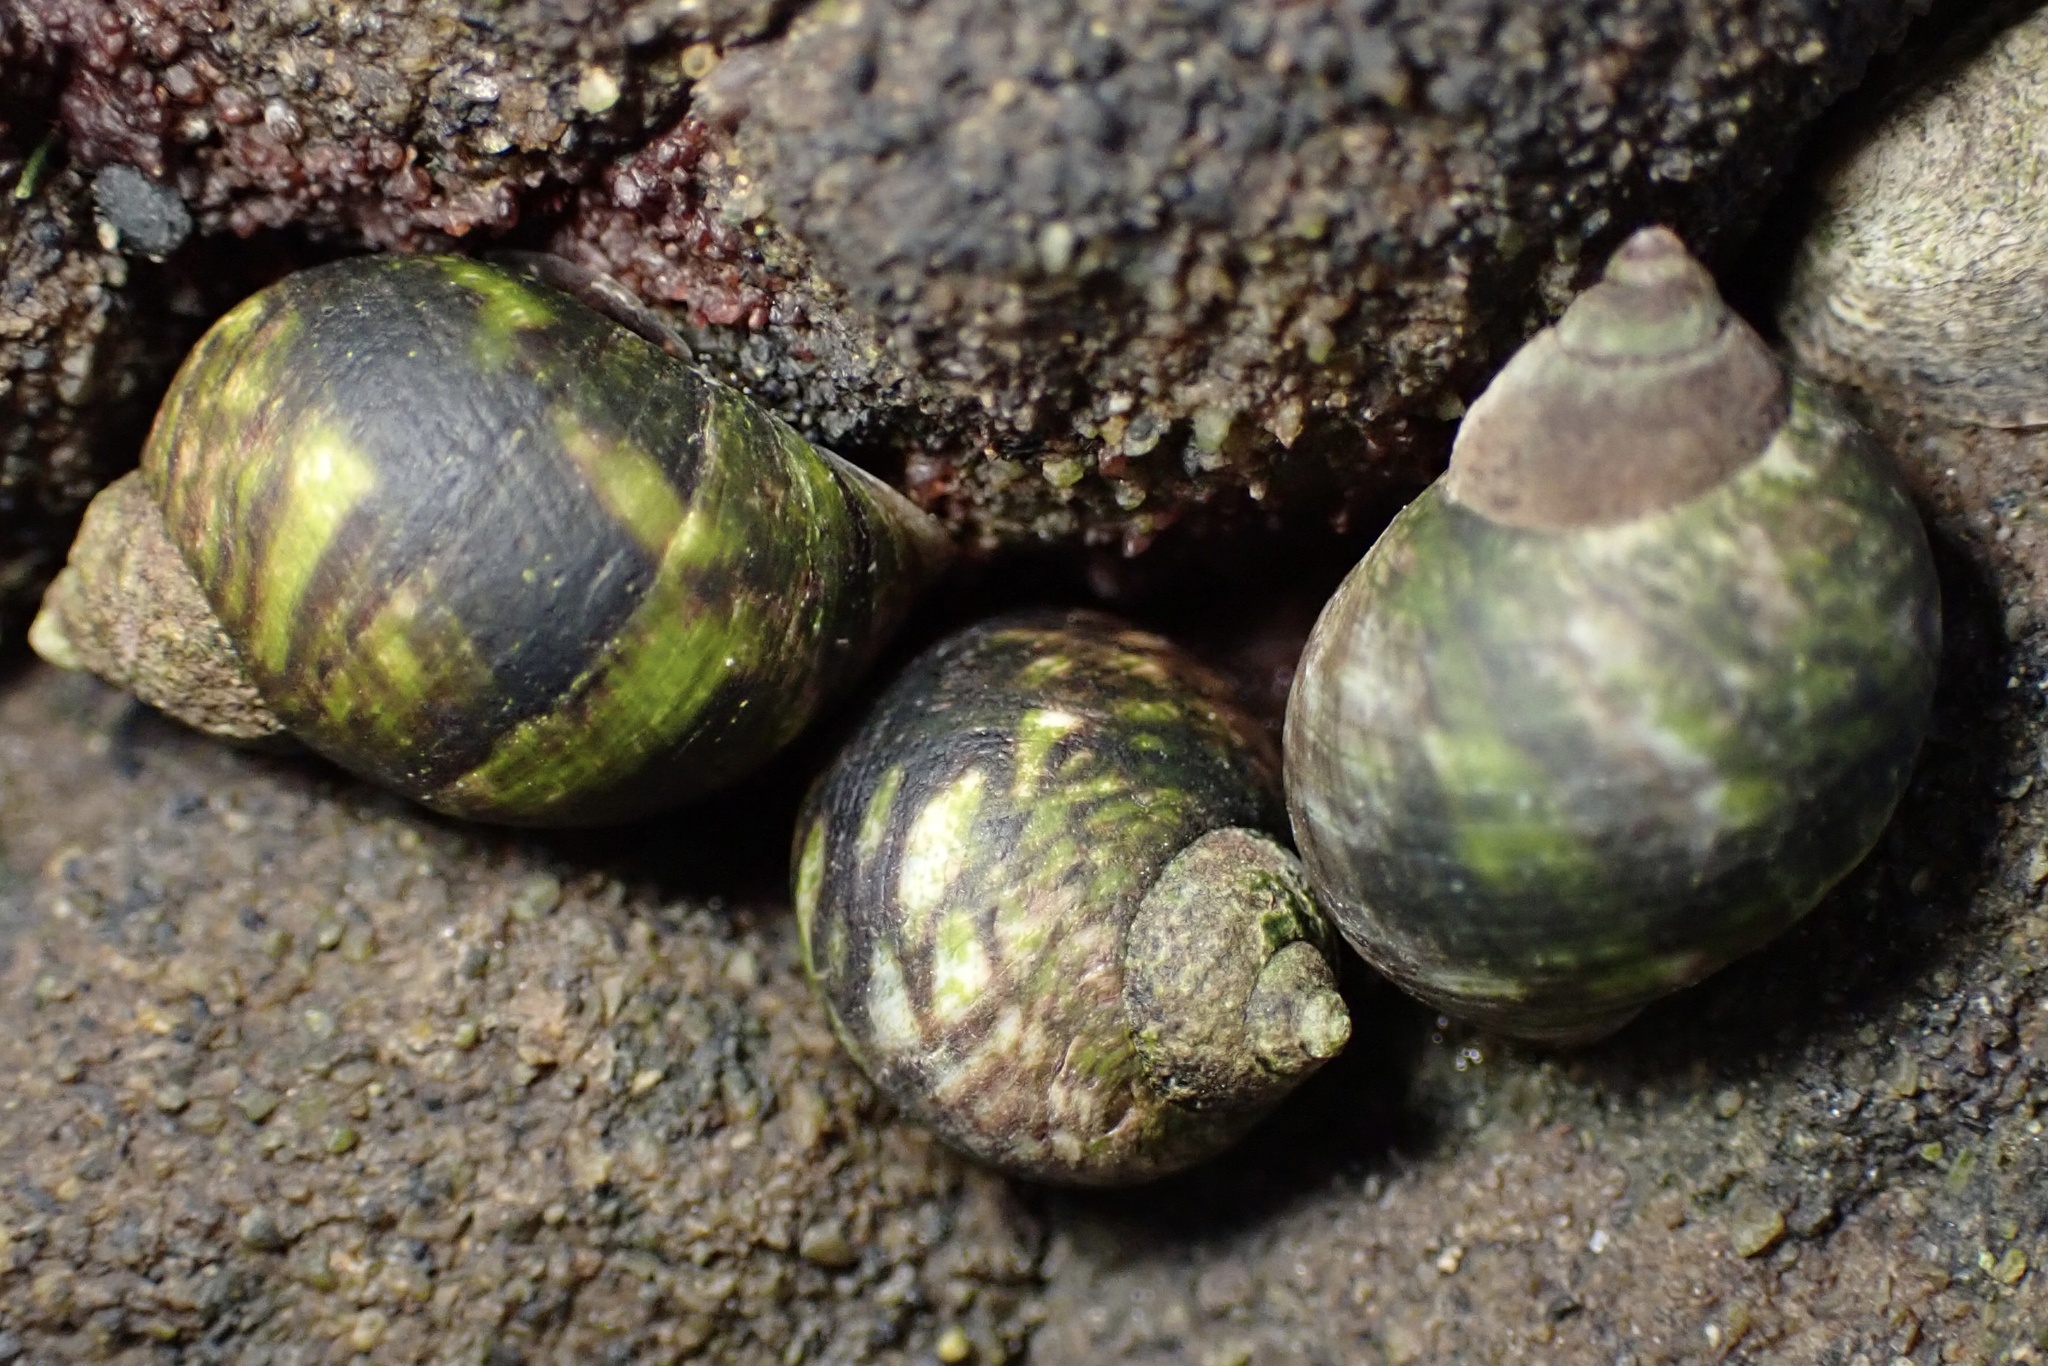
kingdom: Animalia
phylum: Mollusca
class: Gastropoda
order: Littorinimorpha
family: Littorinidae
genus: Littorina
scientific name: Littorina keenae
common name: Eroded periwinkle
